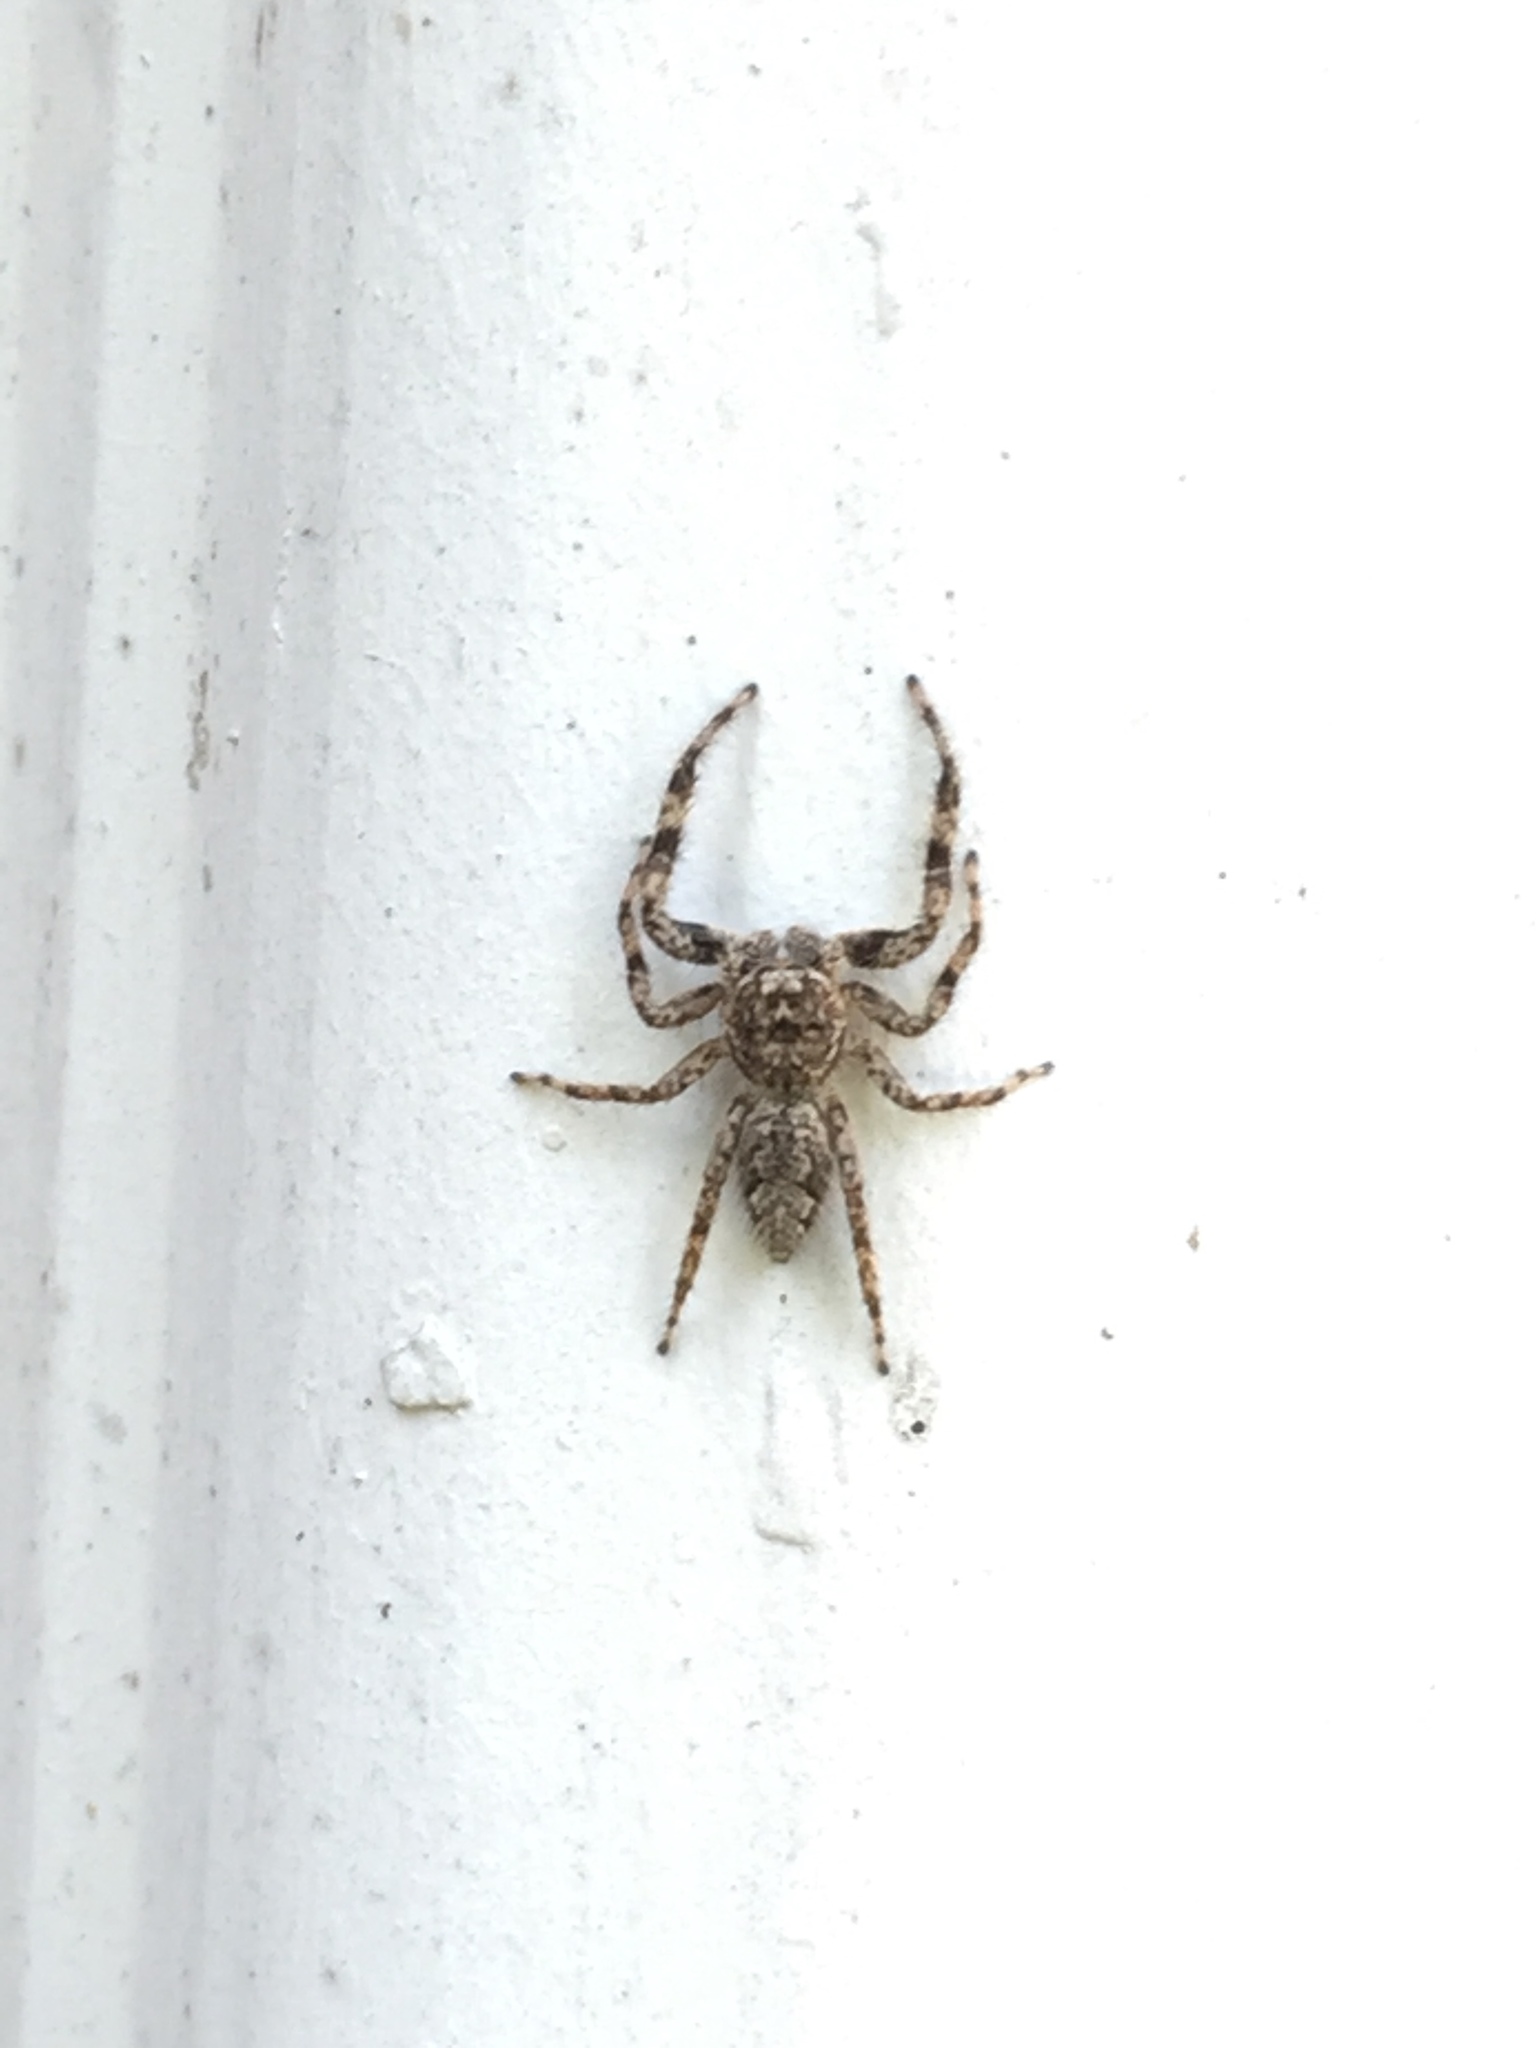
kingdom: Animalia
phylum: Arthropoda
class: Arachnida
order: Araneae
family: Salticidae
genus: Platycryptus
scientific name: Platycryptus undatus
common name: Tan jumping spider
